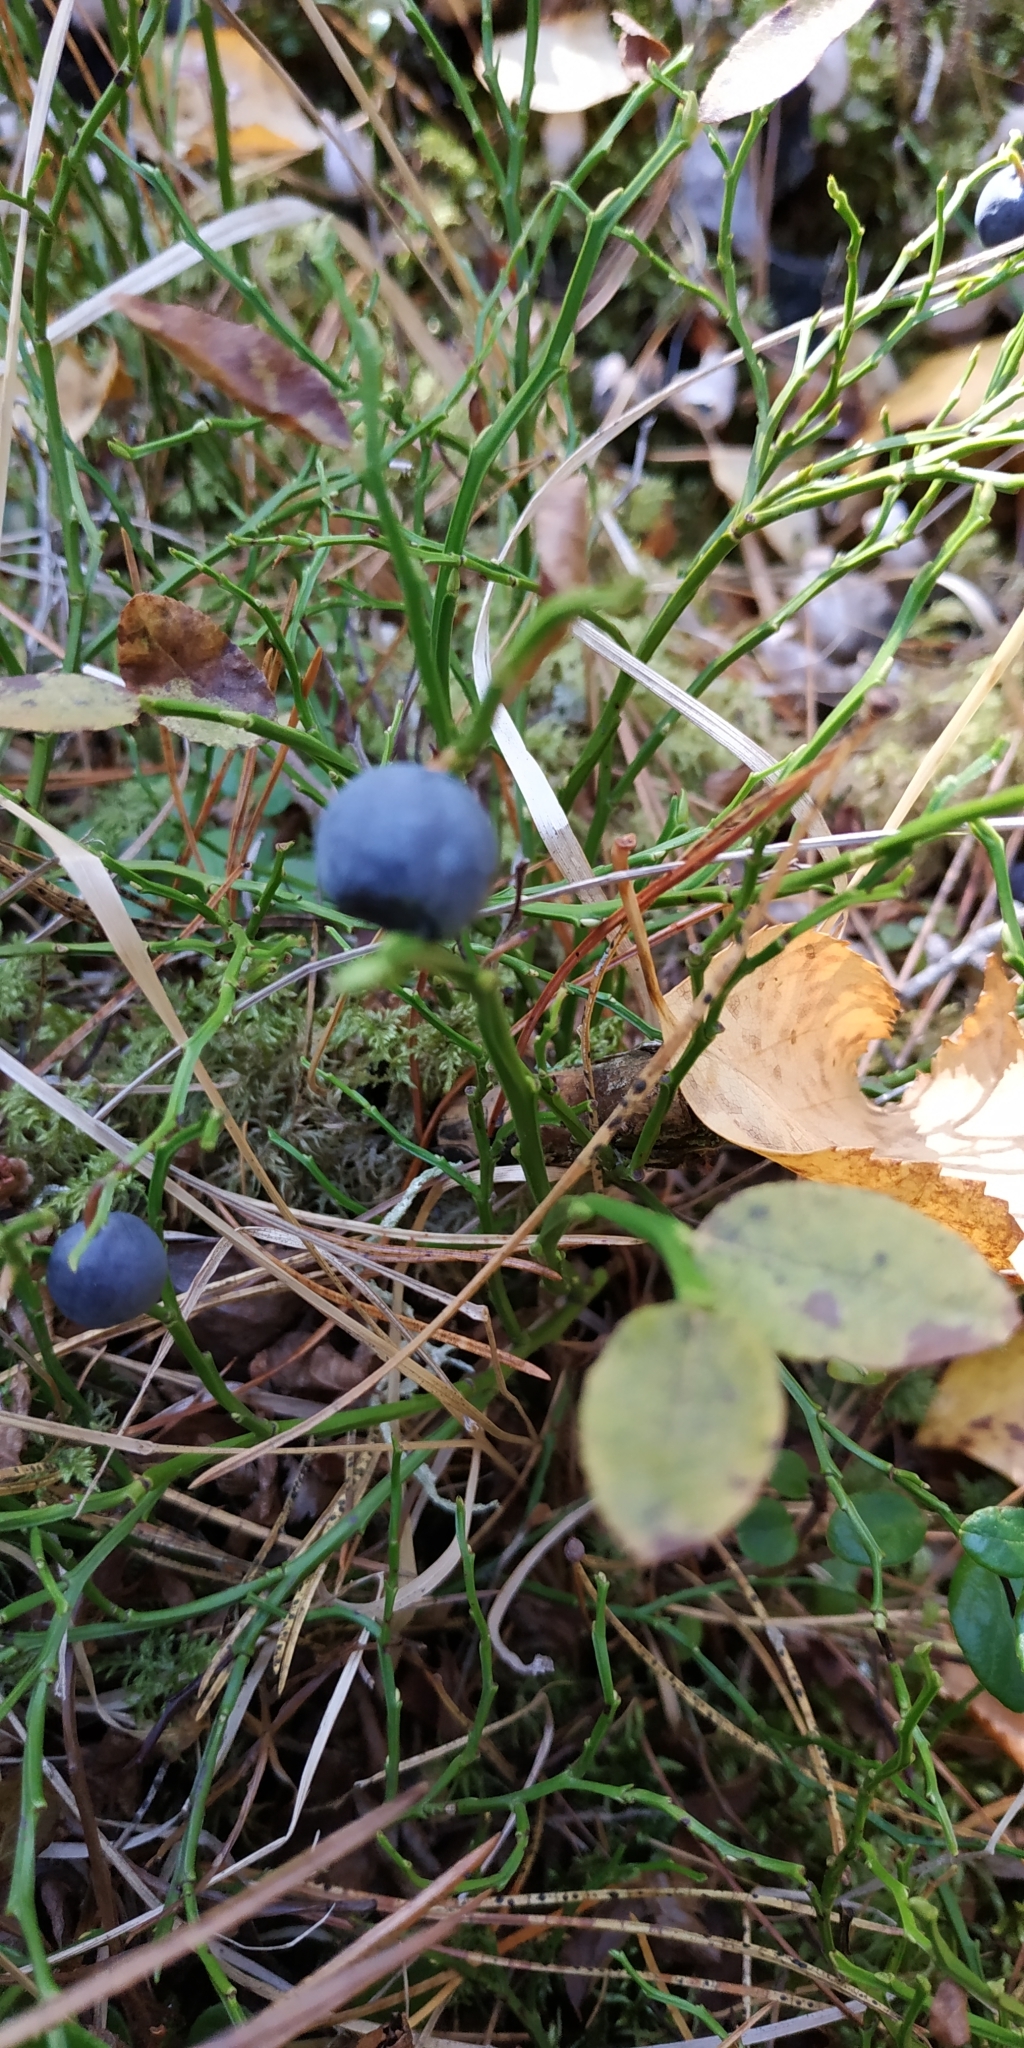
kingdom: Plantae
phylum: Tracheophyta
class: Magnoliopsida
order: Ericales
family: Ericaceae
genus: Vaccinium
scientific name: Vaccinium myrtillus
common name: Bilberry
